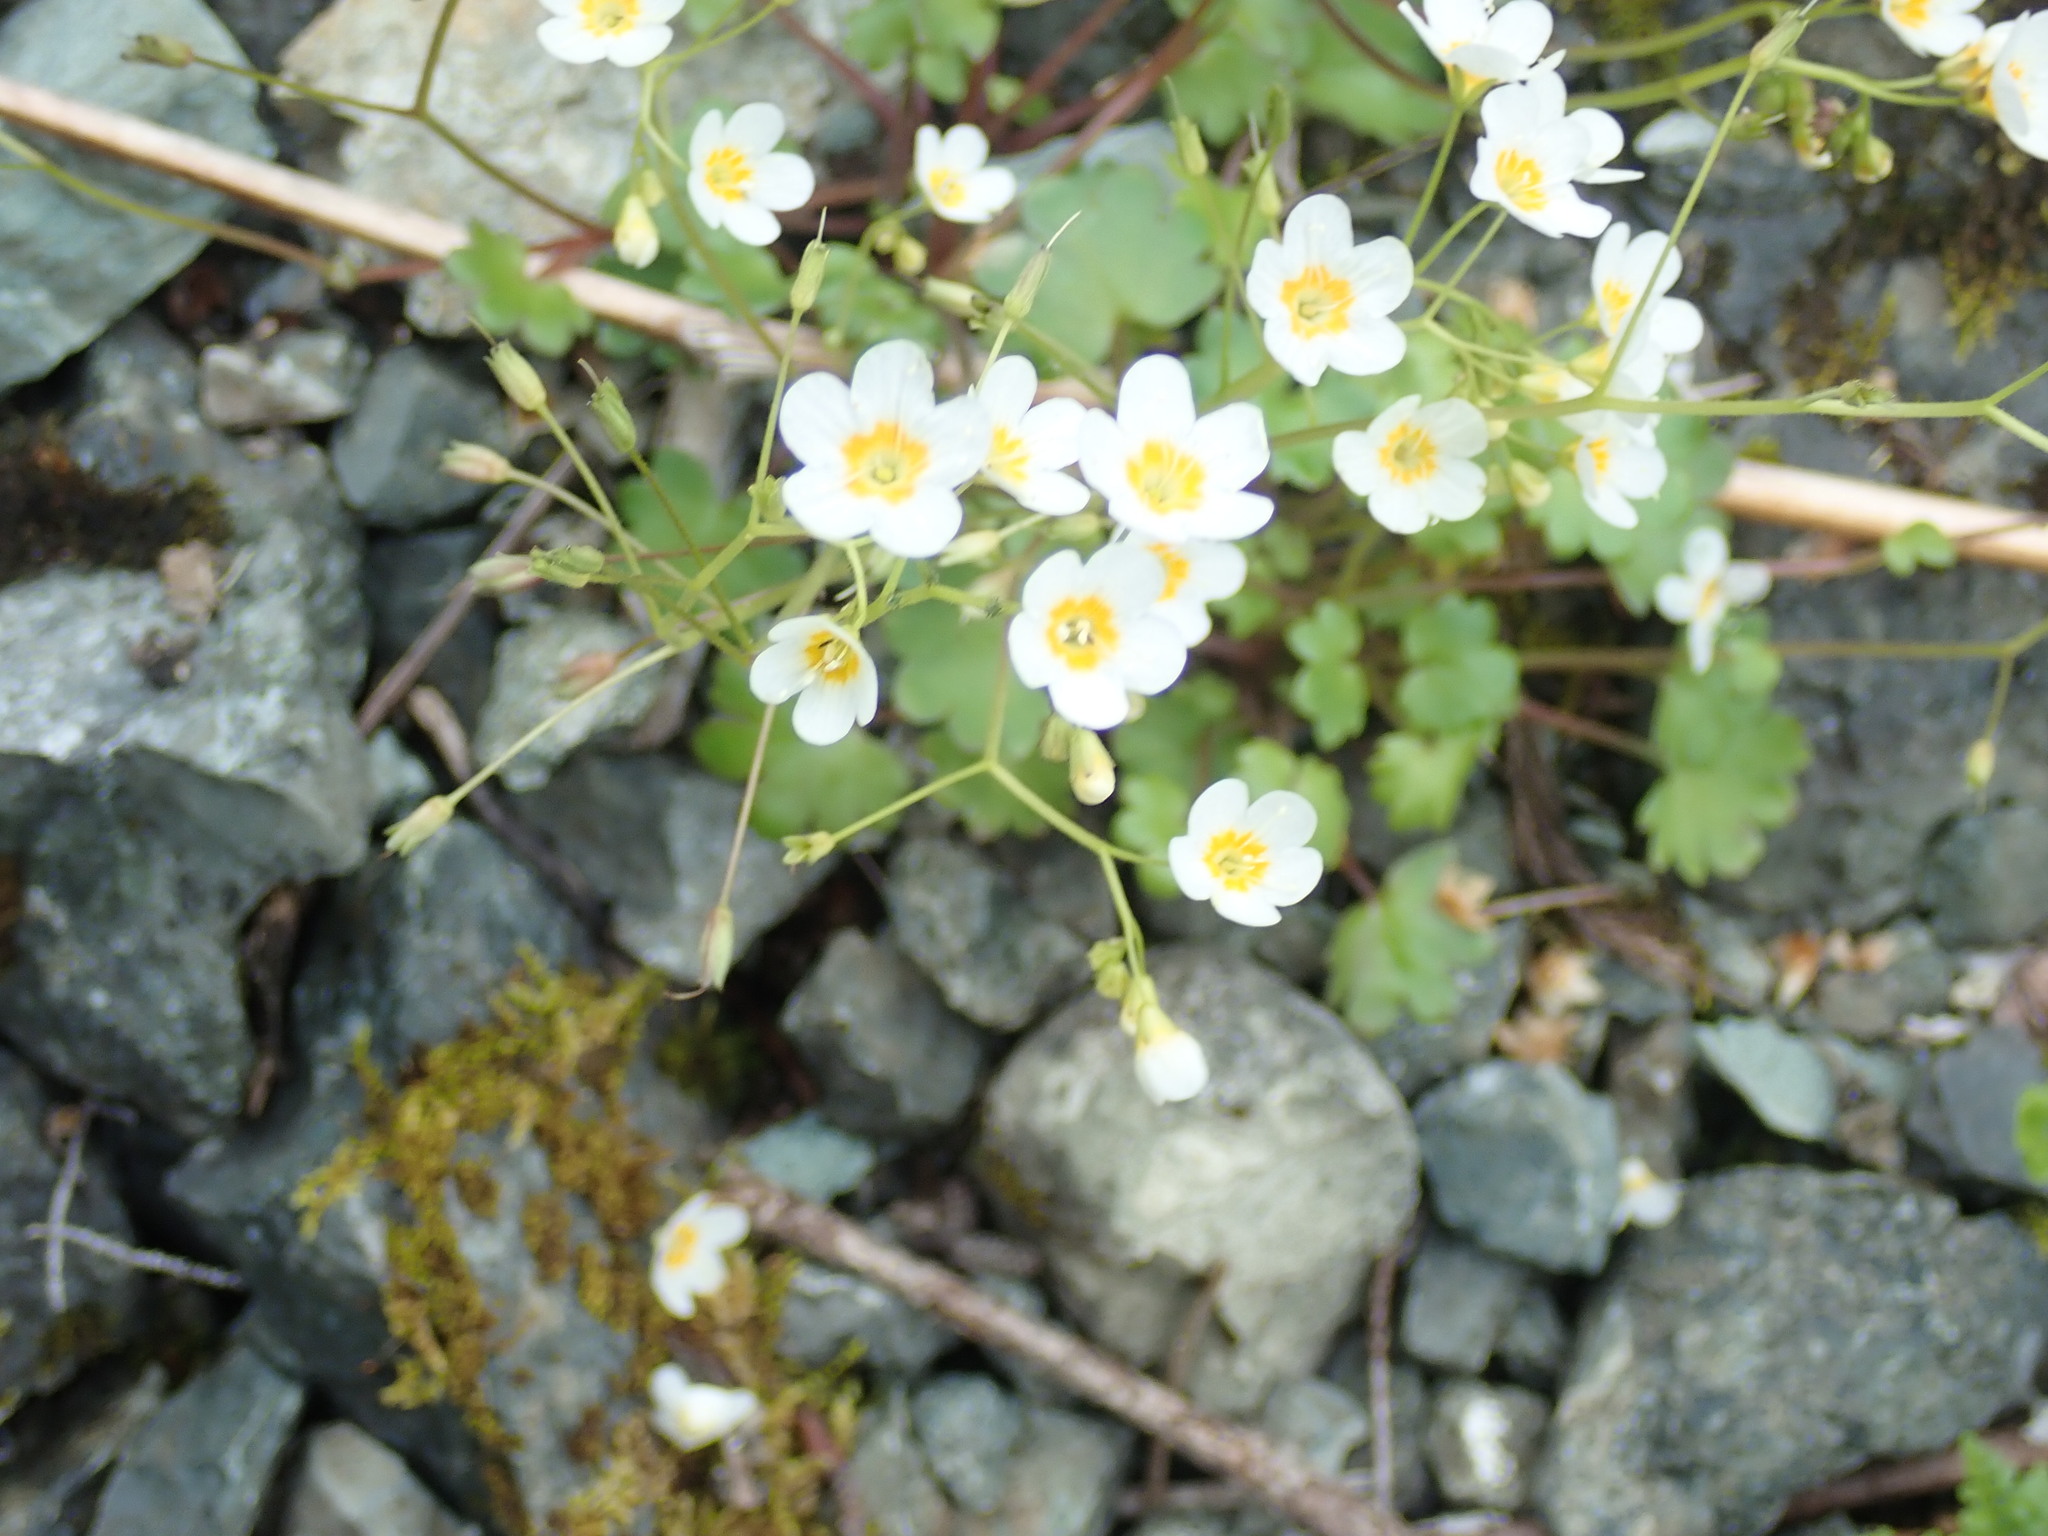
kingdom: Plantae
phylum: Tracheophyta
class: Magnoliopsida
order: Boraginales
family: Hydrophyllaceae
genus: Romanzoffia
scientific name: Romanzoffia sitchensis
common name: Sitka mistmaid
